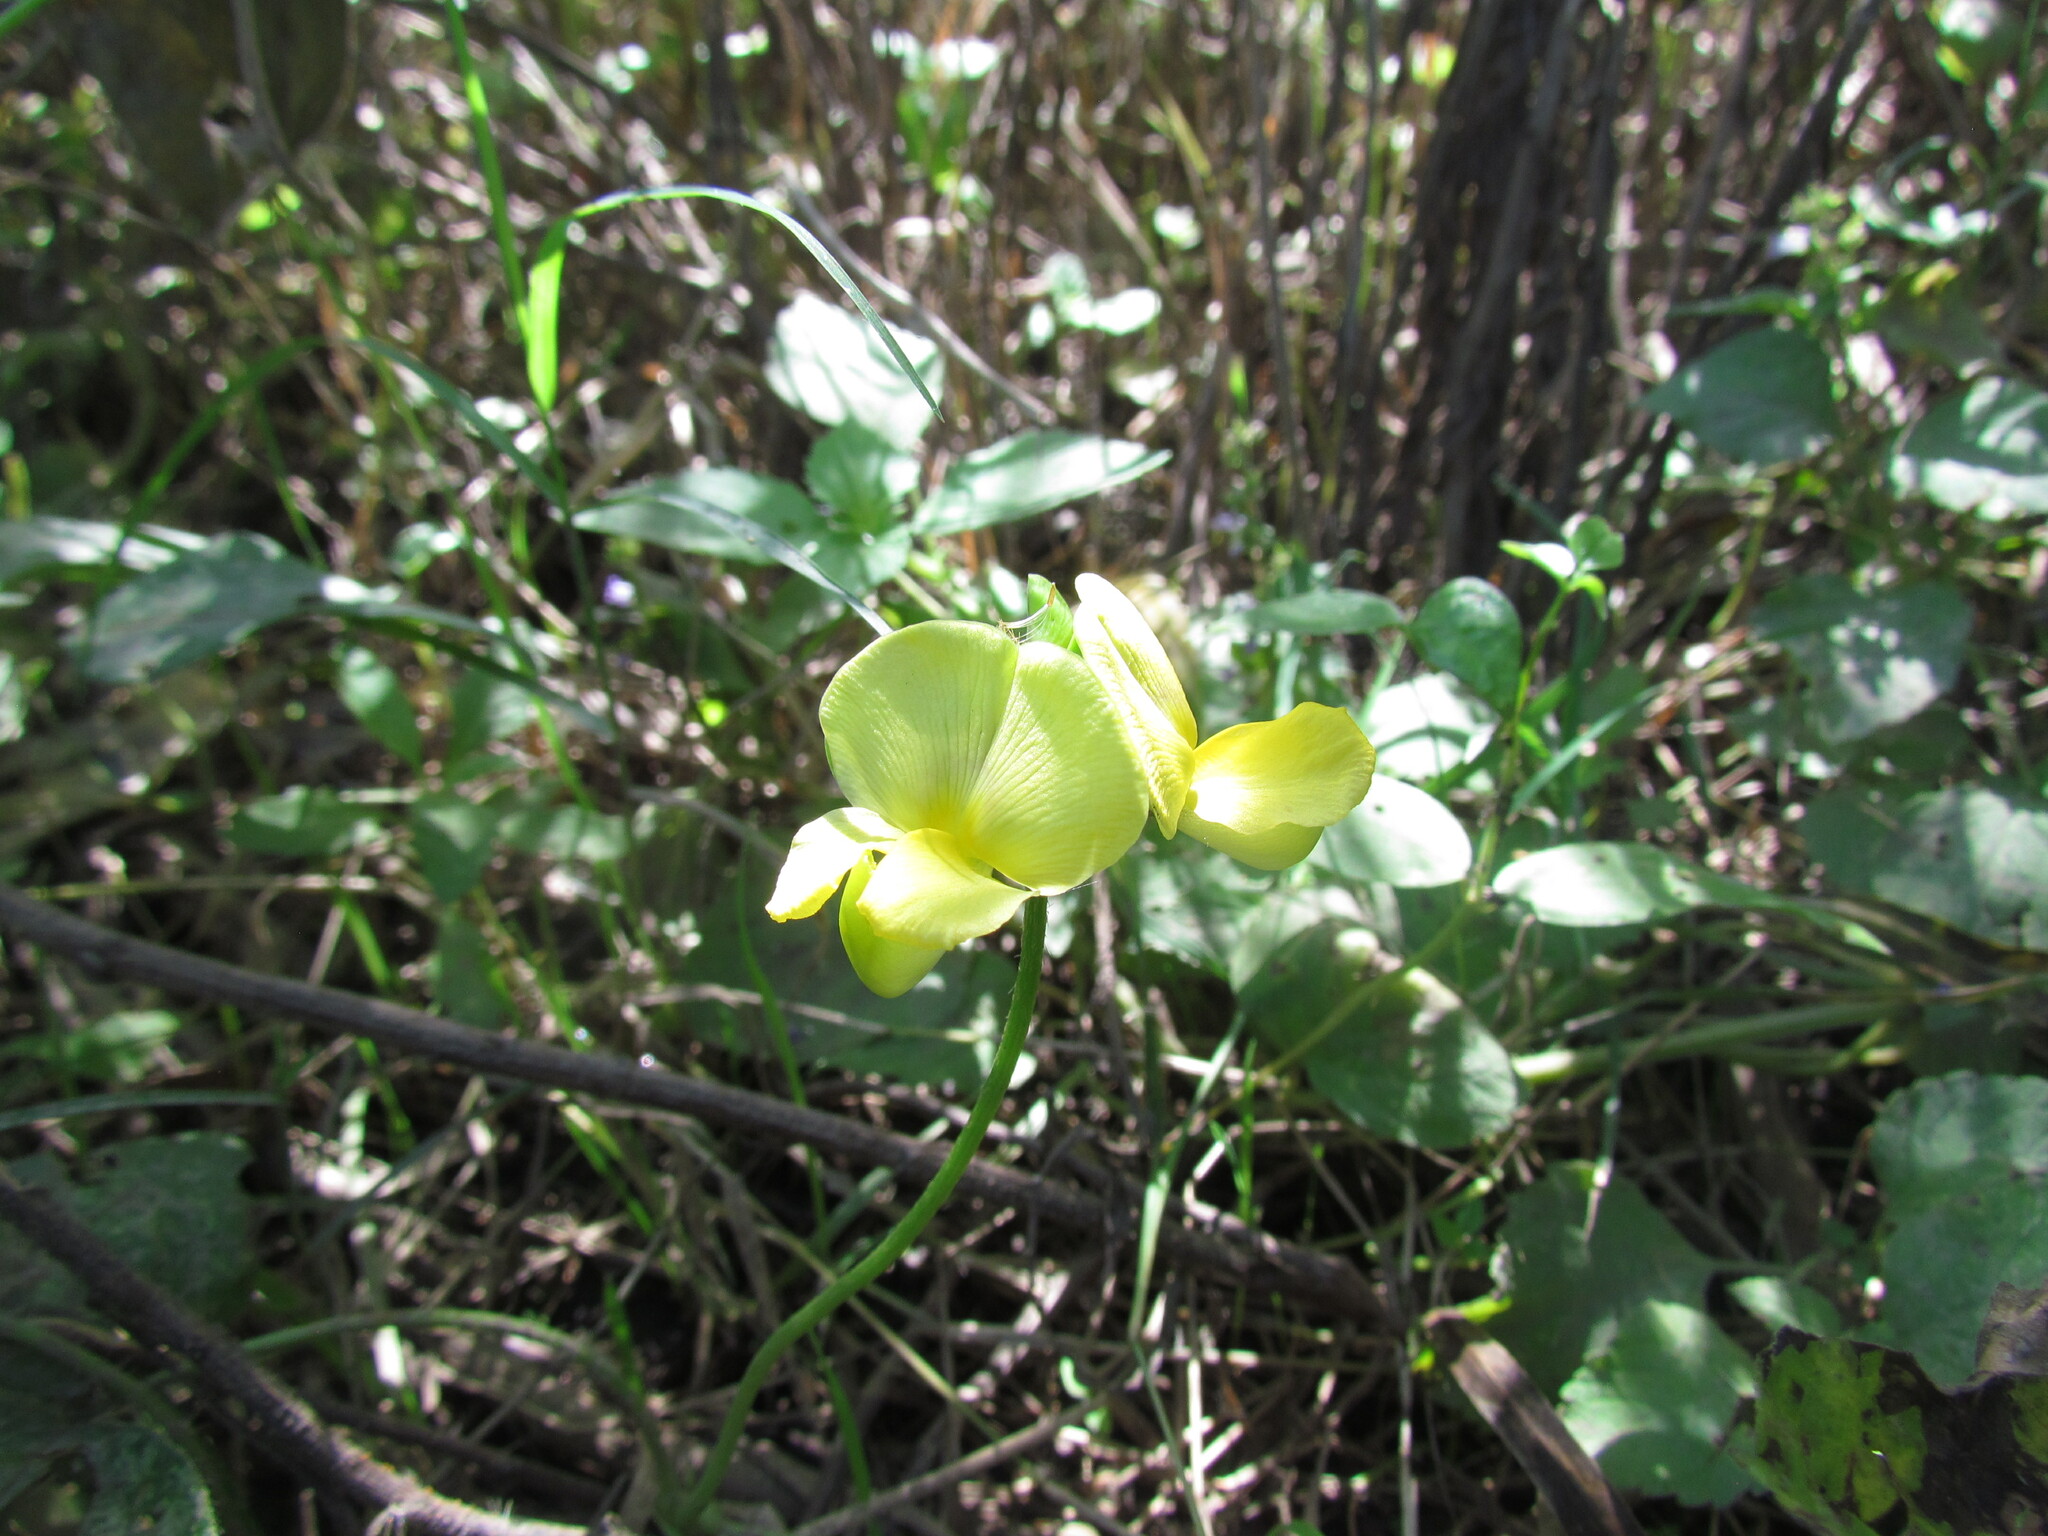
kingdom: Plantae
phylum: Tracheophyta
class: Magnoliopsida
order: Fabales
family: Fabaceae
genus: Vigna
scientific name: Vigna luteola
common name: Hairypod cowpea
